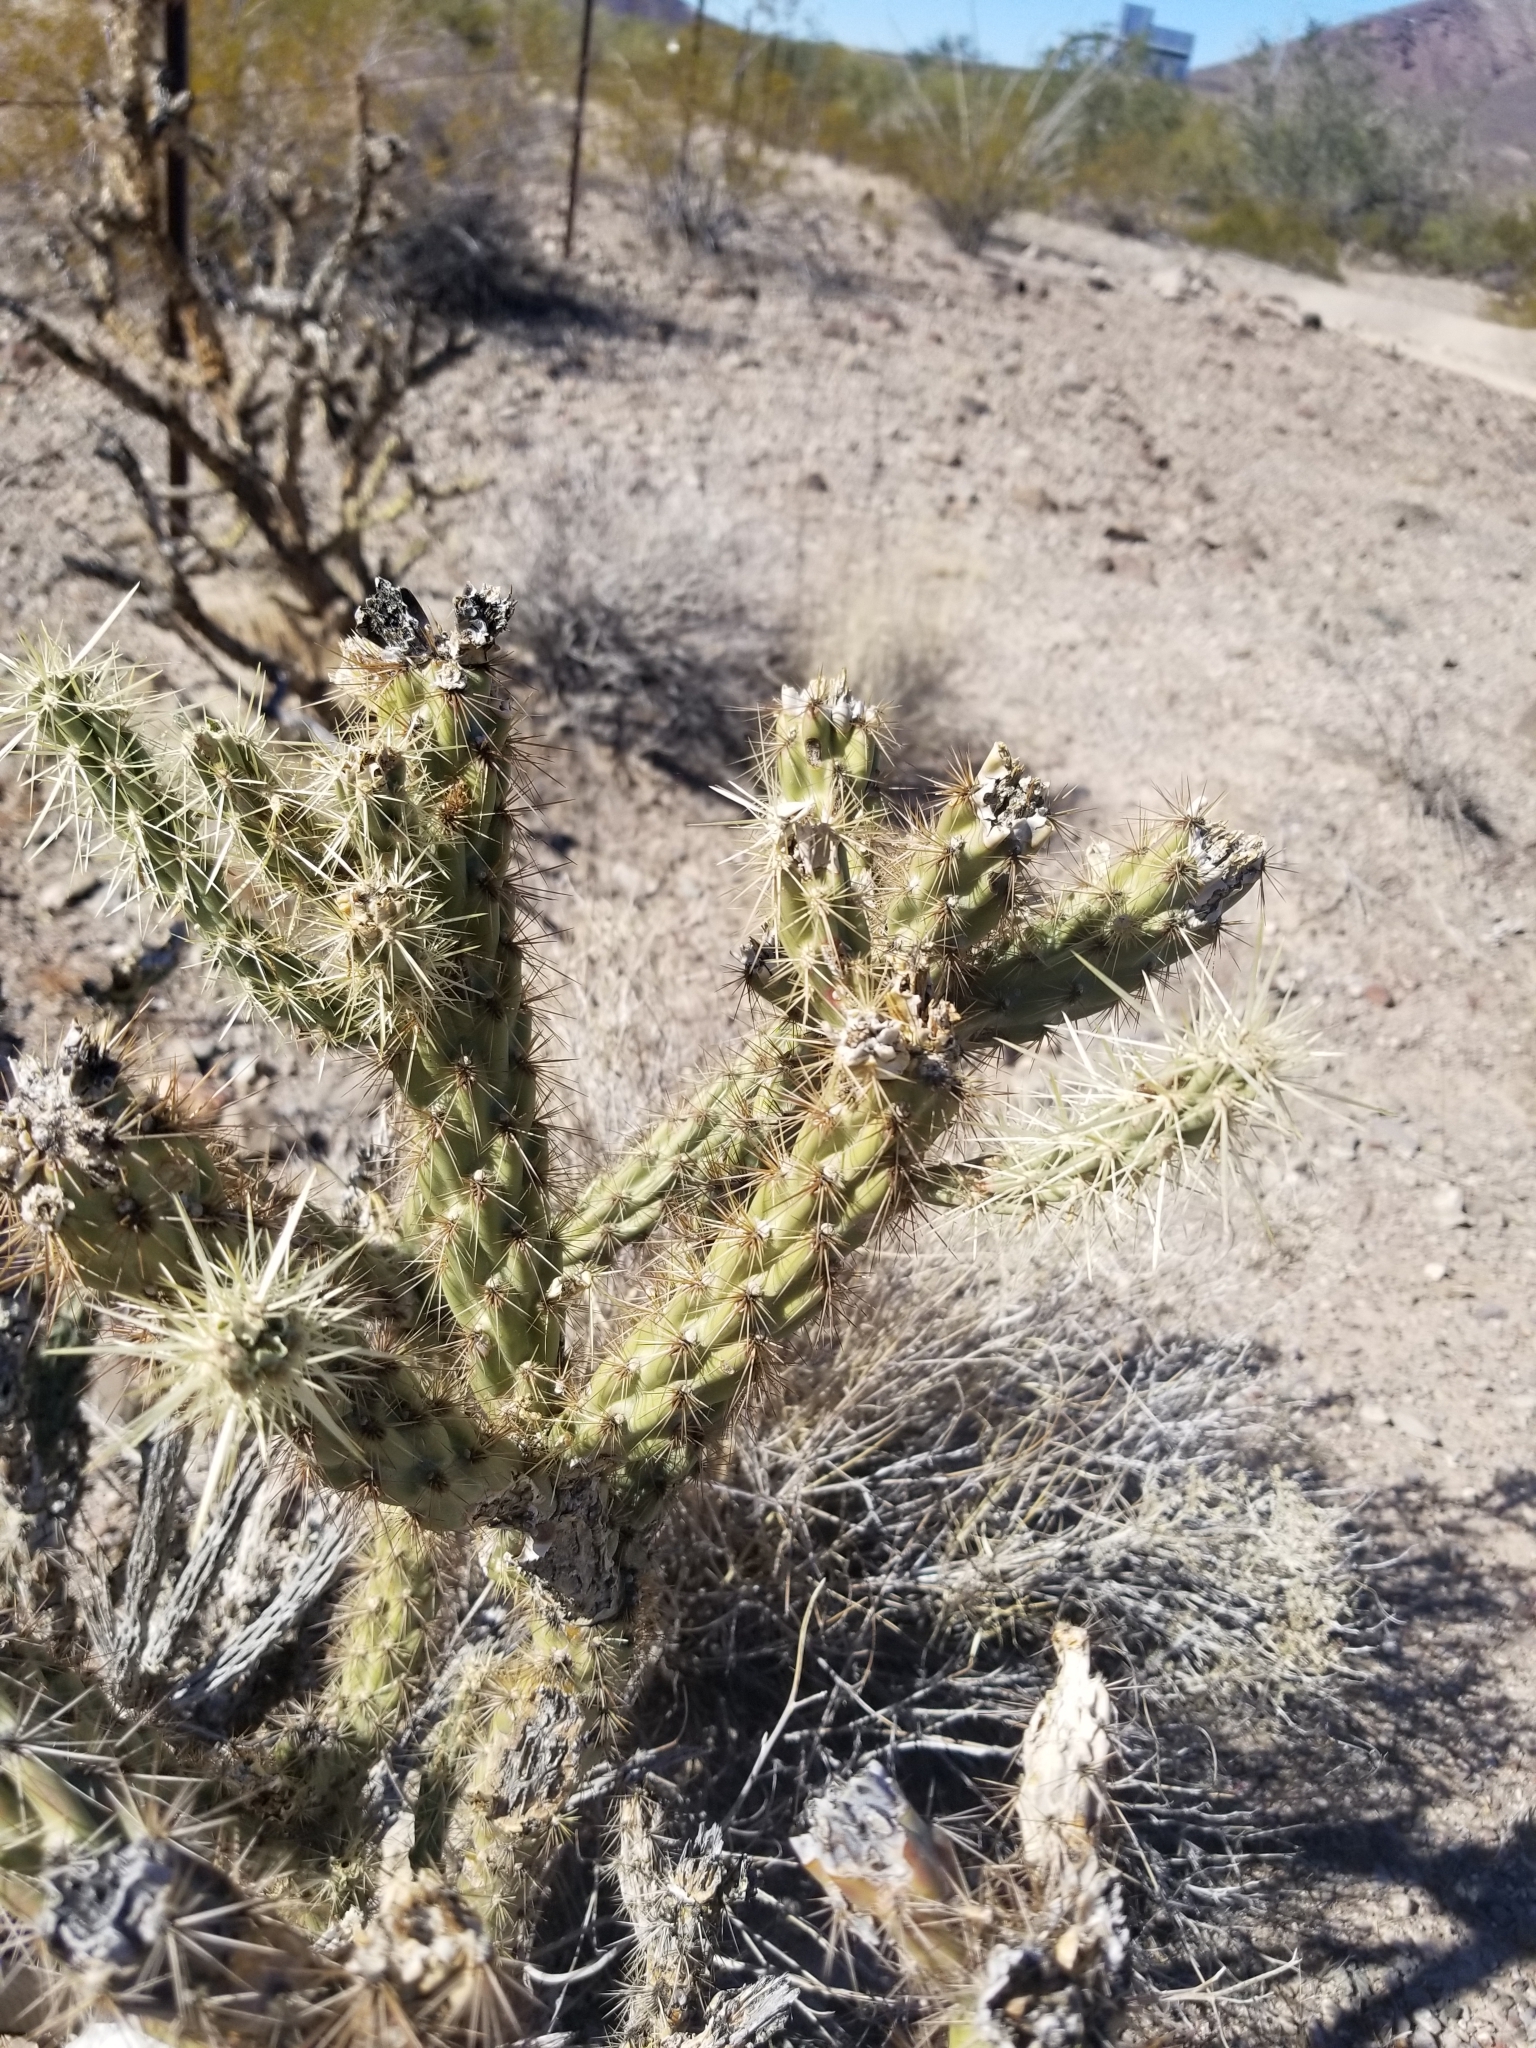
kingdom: Plantae
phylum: Tracheophyta
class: Magnoliopsida
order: Caryophyllales
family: Cactaceae
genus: Cylindropuntia
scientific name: Cylindropuntia acanthocarpa
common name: Buckhorn cholla
